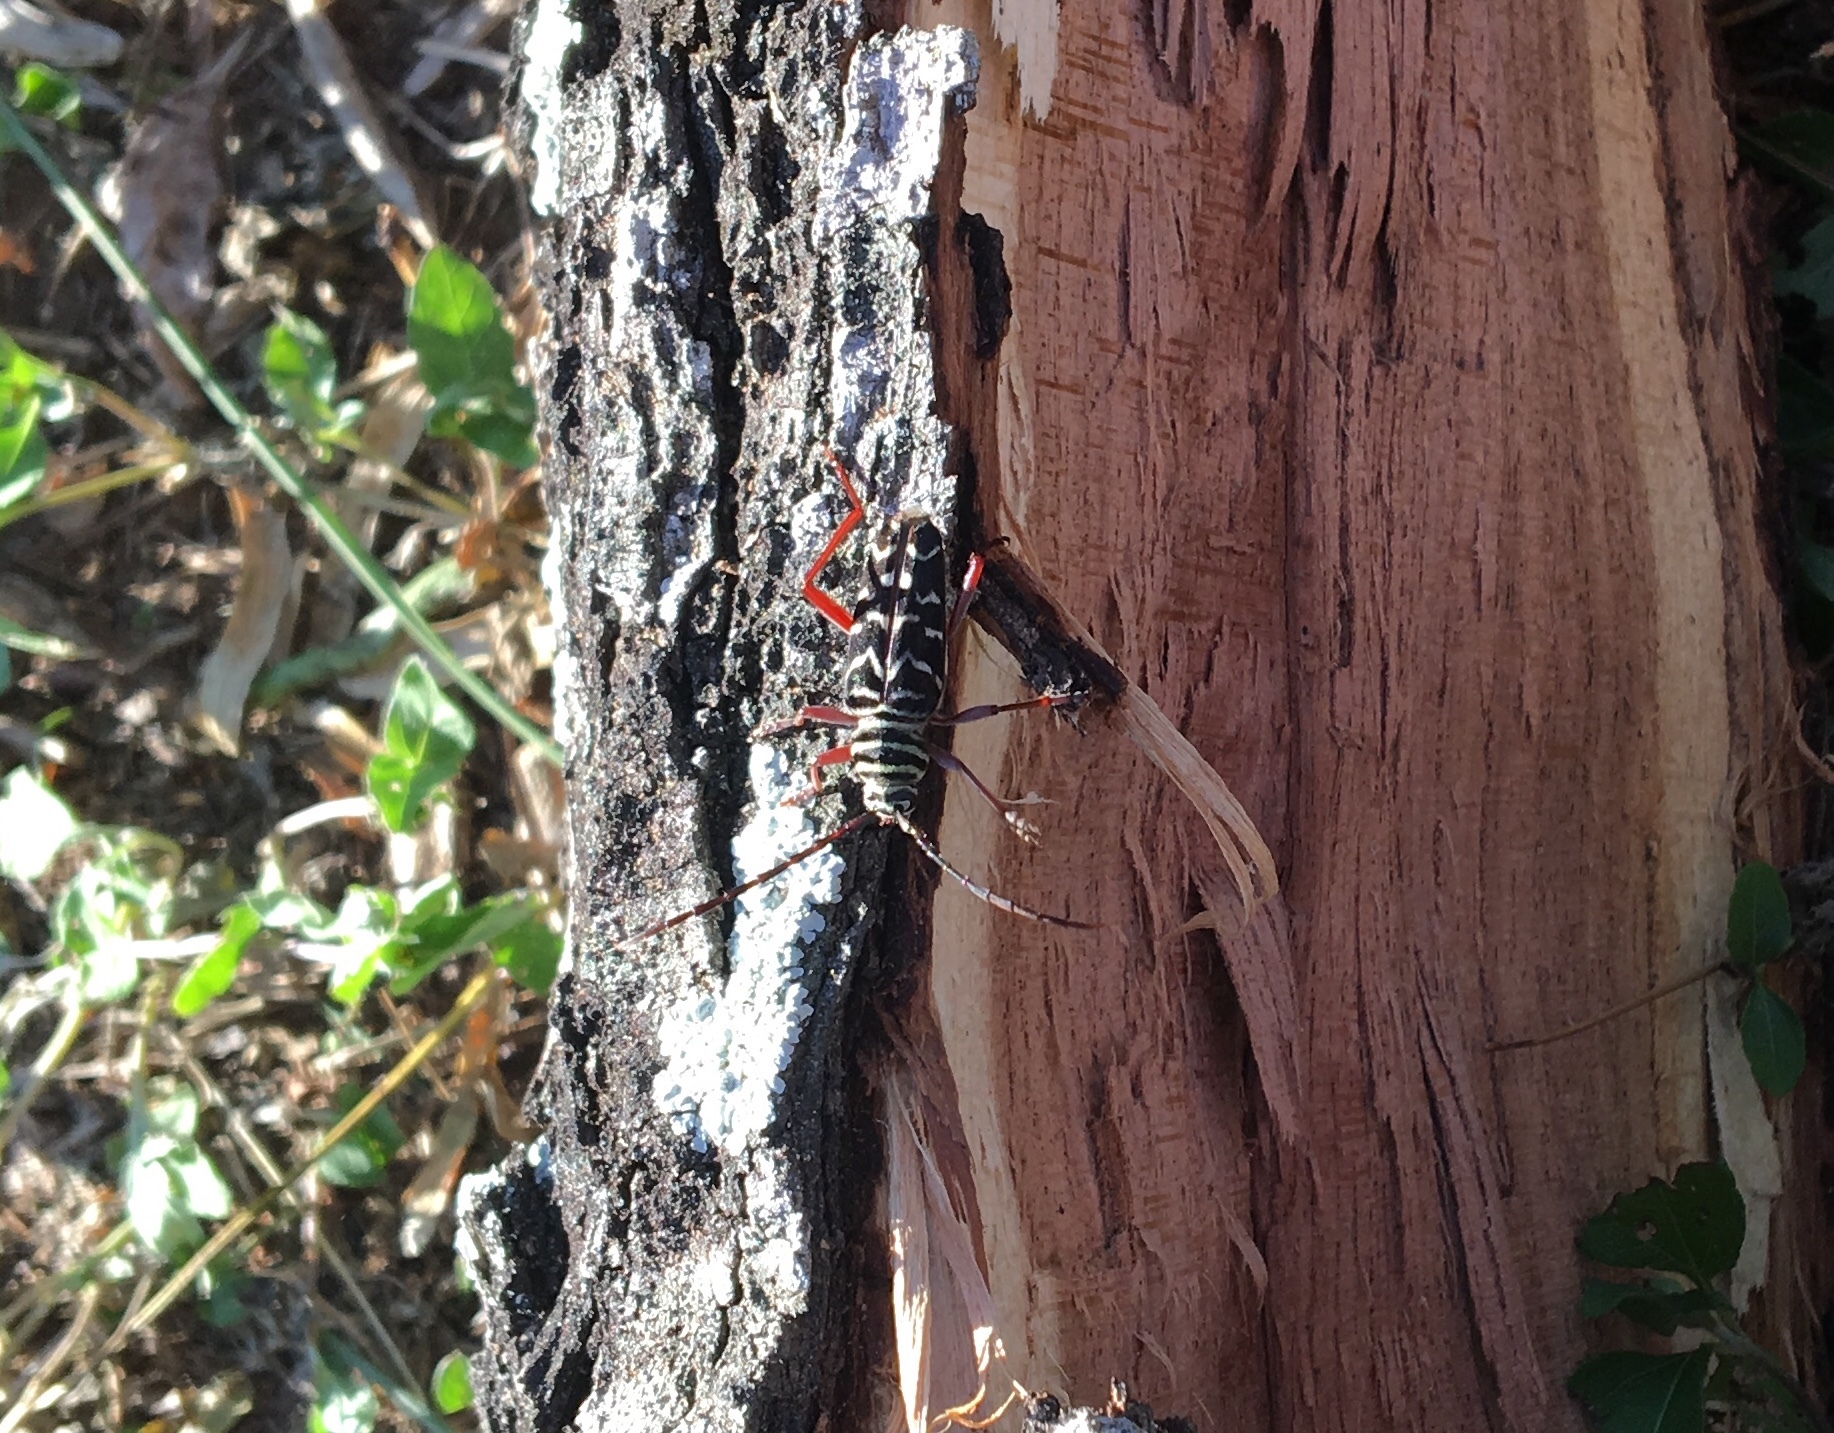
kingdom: Animalia
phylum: Arthropoda
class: Insecta
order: Coleoptera
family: Cerambycidae
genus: Megacyllene
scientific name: Megacyllene robiniae
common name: Locust borer
